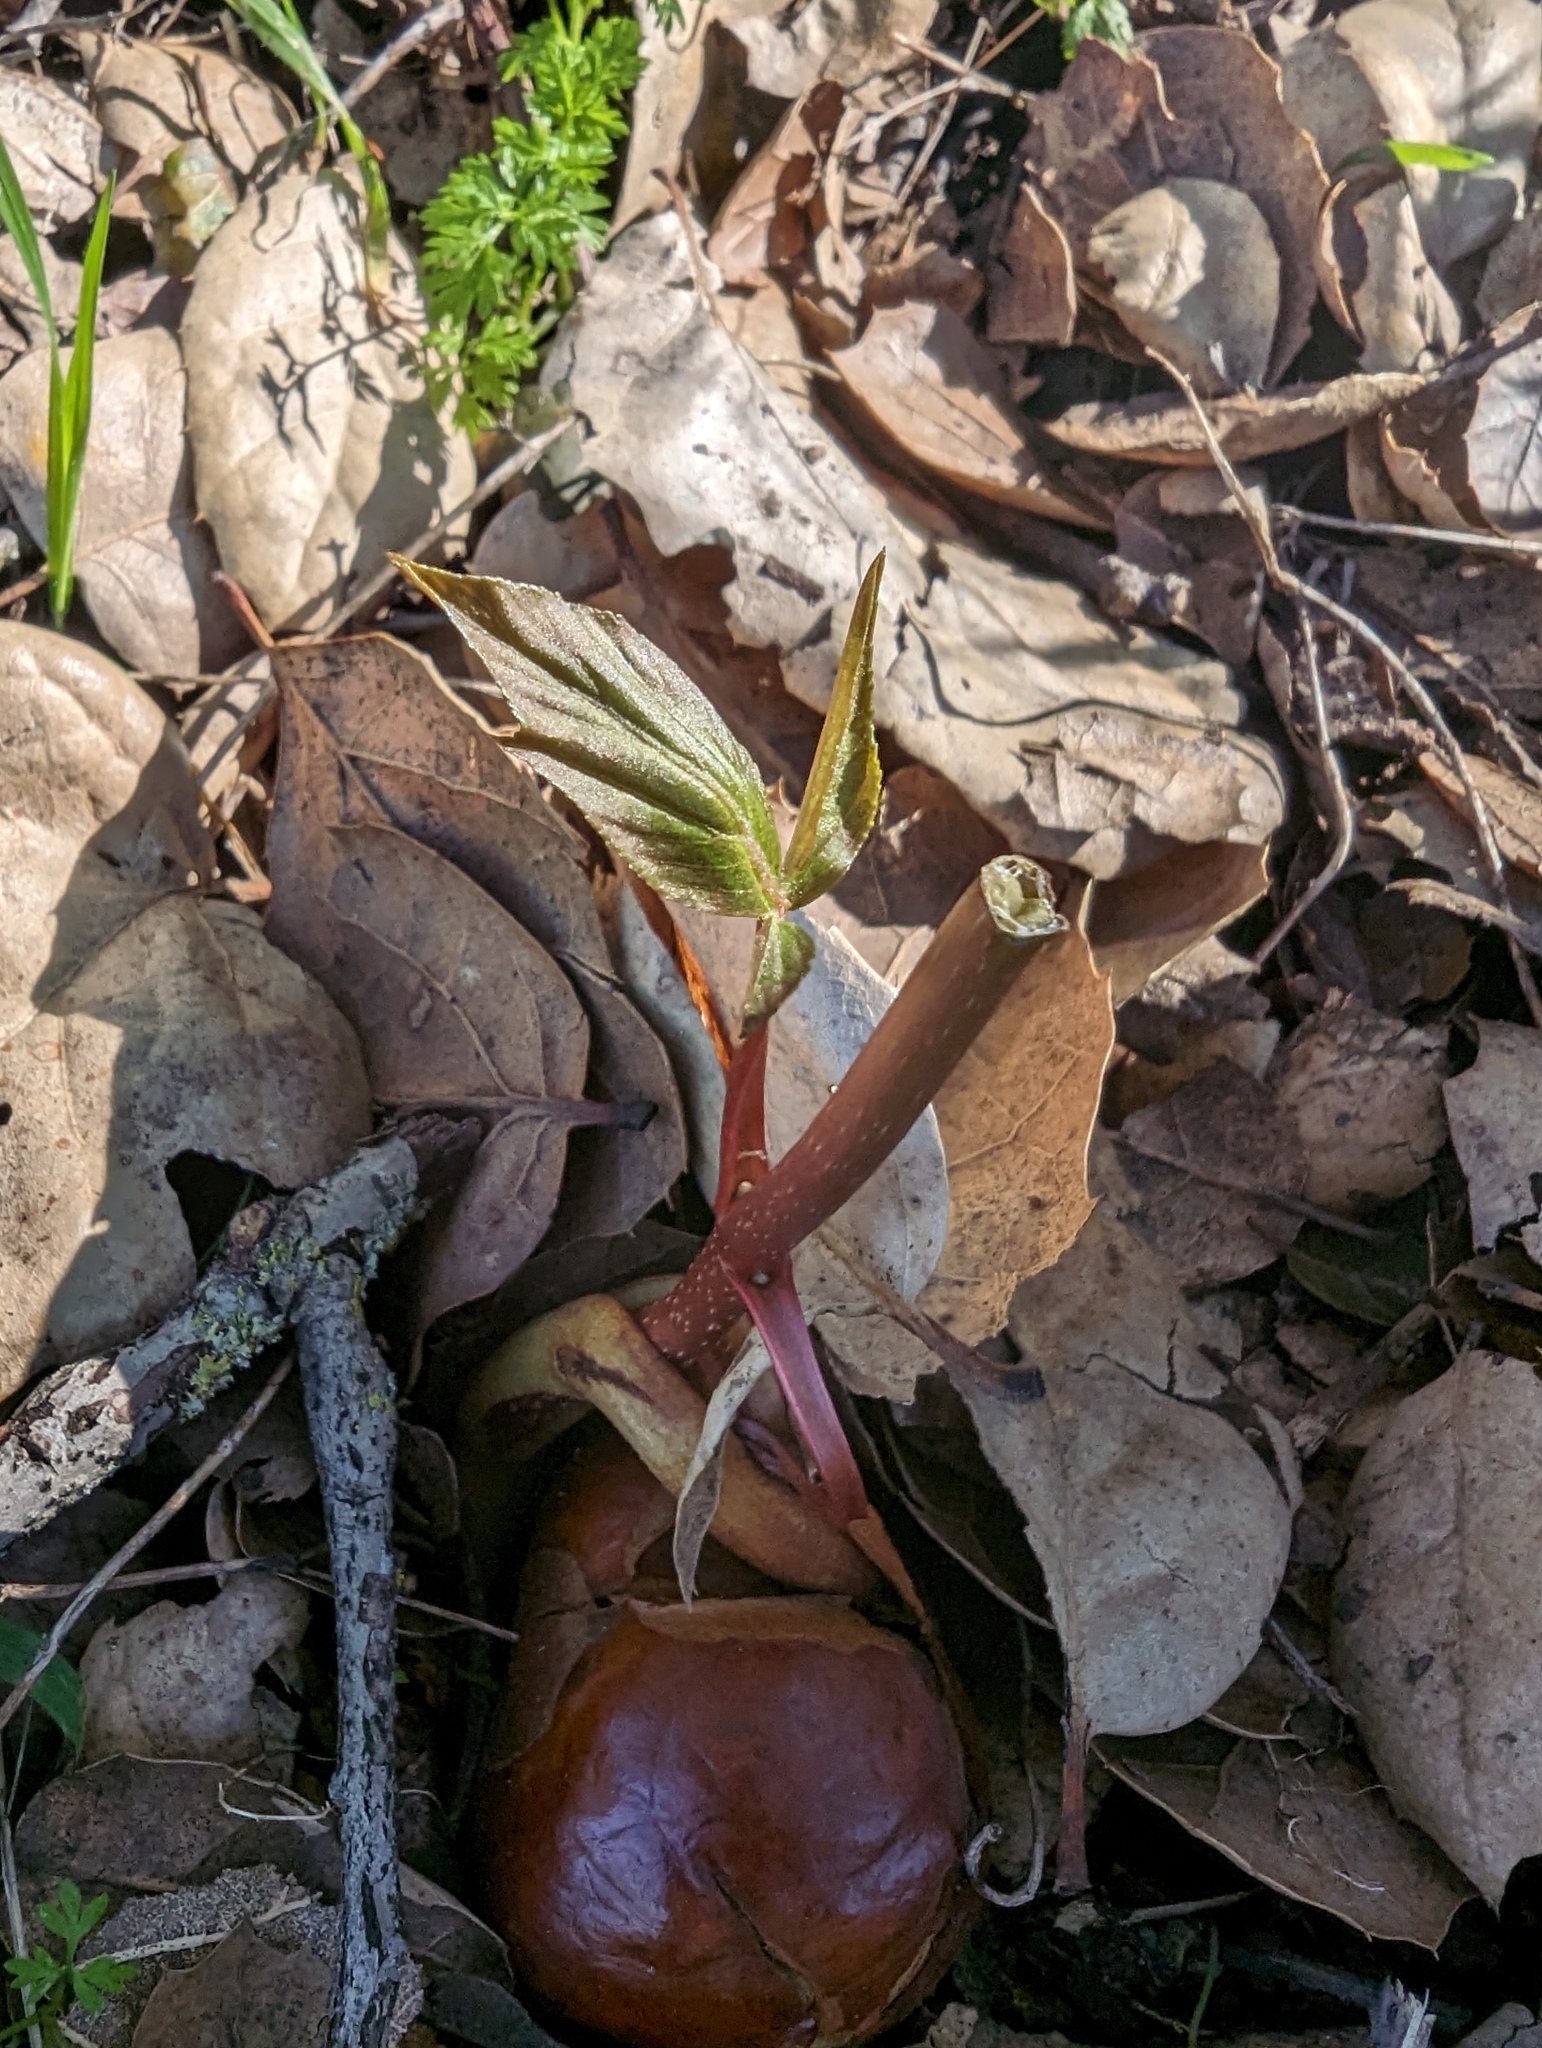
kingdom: Plantae
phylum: Tracheophyta
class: Magnoliopsida
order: Sapindales
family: Sapindaceae
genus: Aesculus
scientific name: Aesculus californica
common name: California buckeye
